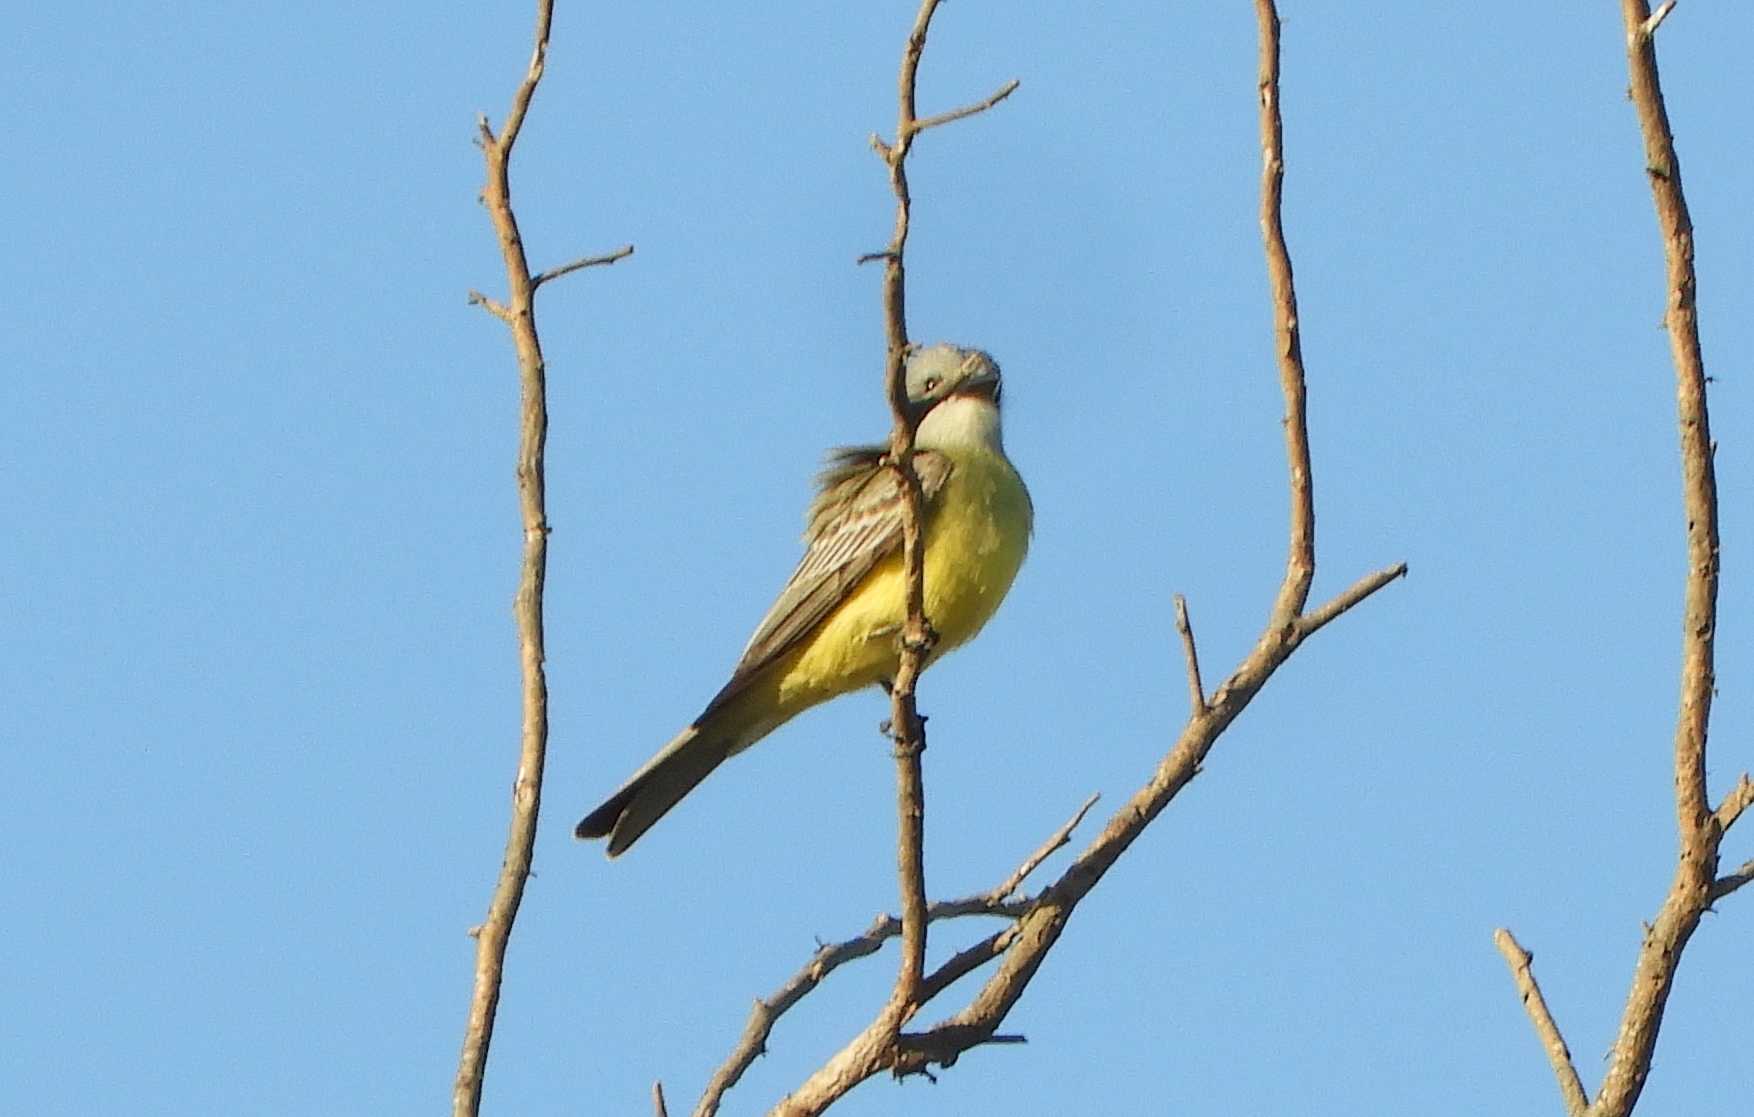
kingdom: Animalia
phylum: Chordata
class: Aves
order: Passeriformes
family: Tyrannidae
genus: Tyrannus
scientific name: Tyrannus melancholicus
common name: Tropical kingbird
